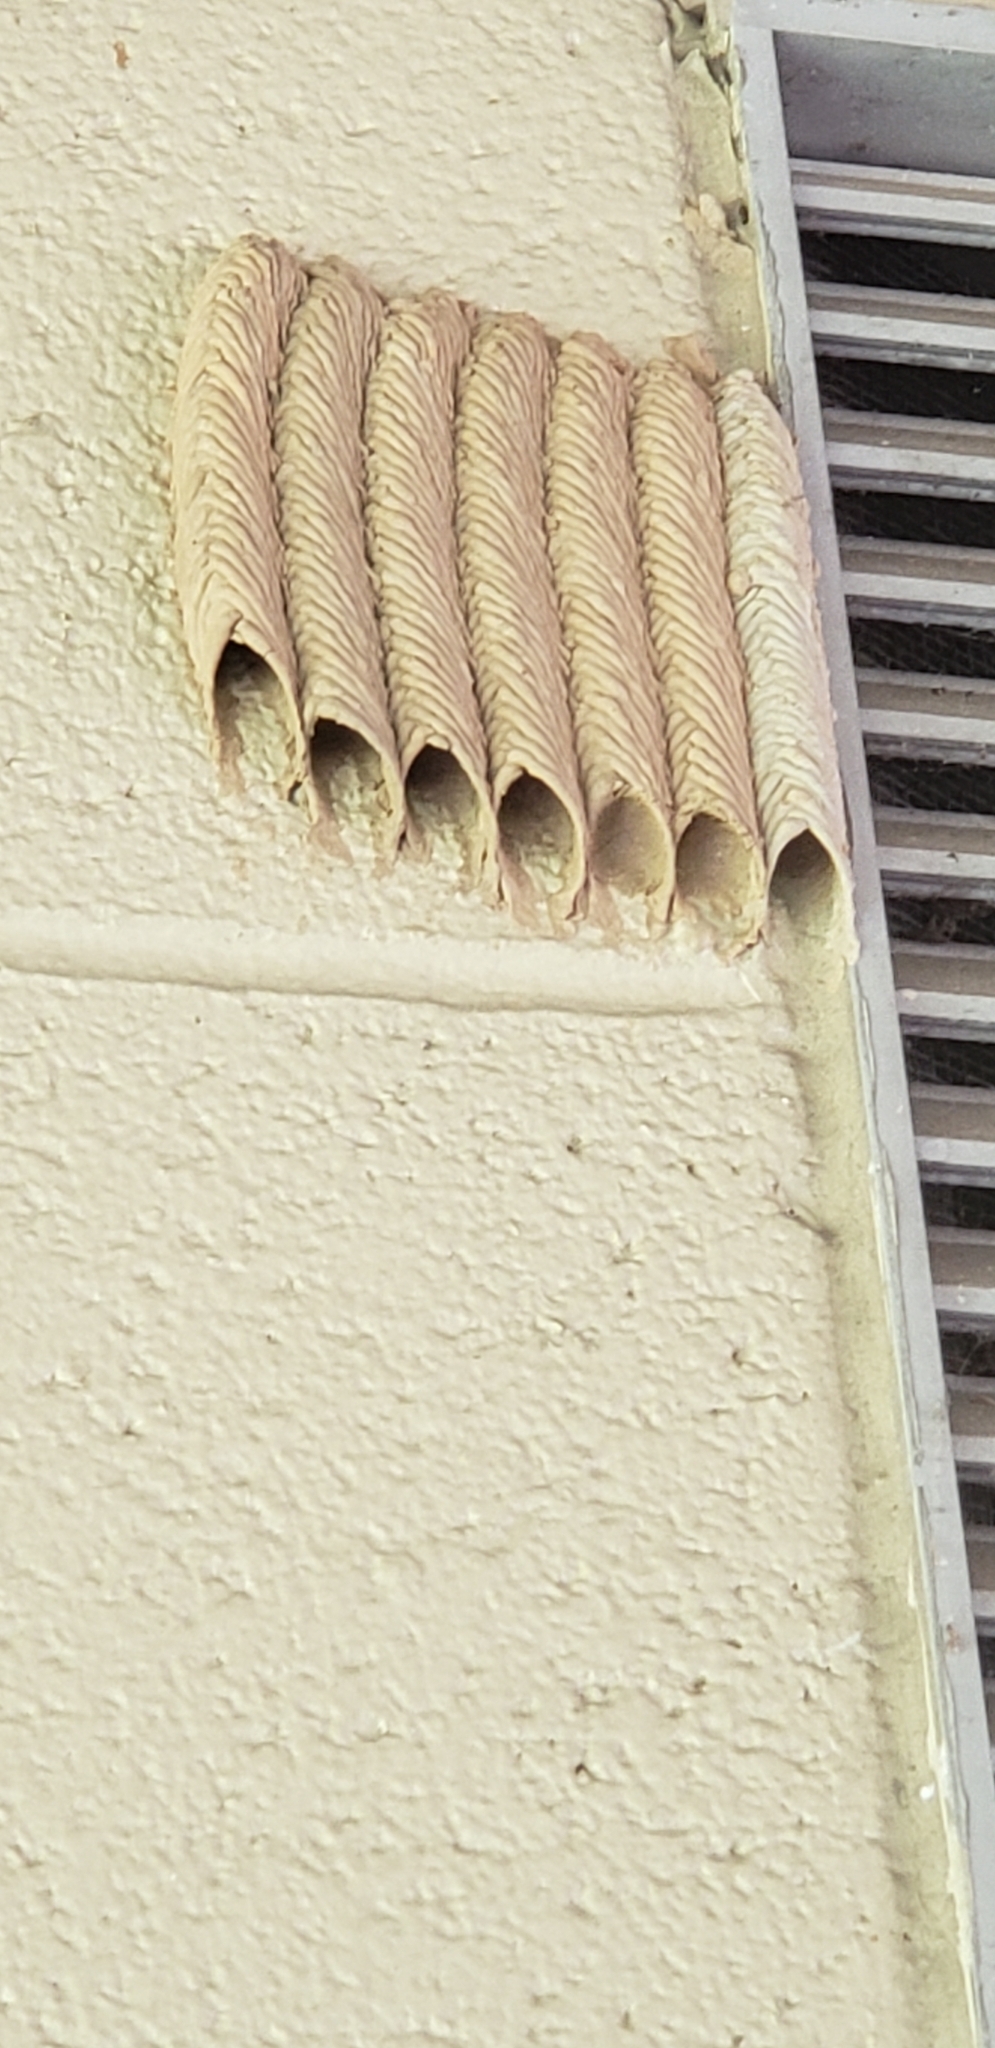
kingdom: Animalia
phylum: Arthropoda
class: Insecta
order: Hymenoptera
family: Crabronidae
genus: Trypoxylon
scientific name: Trypoxylon politum
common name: Organ-pipe mud-dauber wasp
